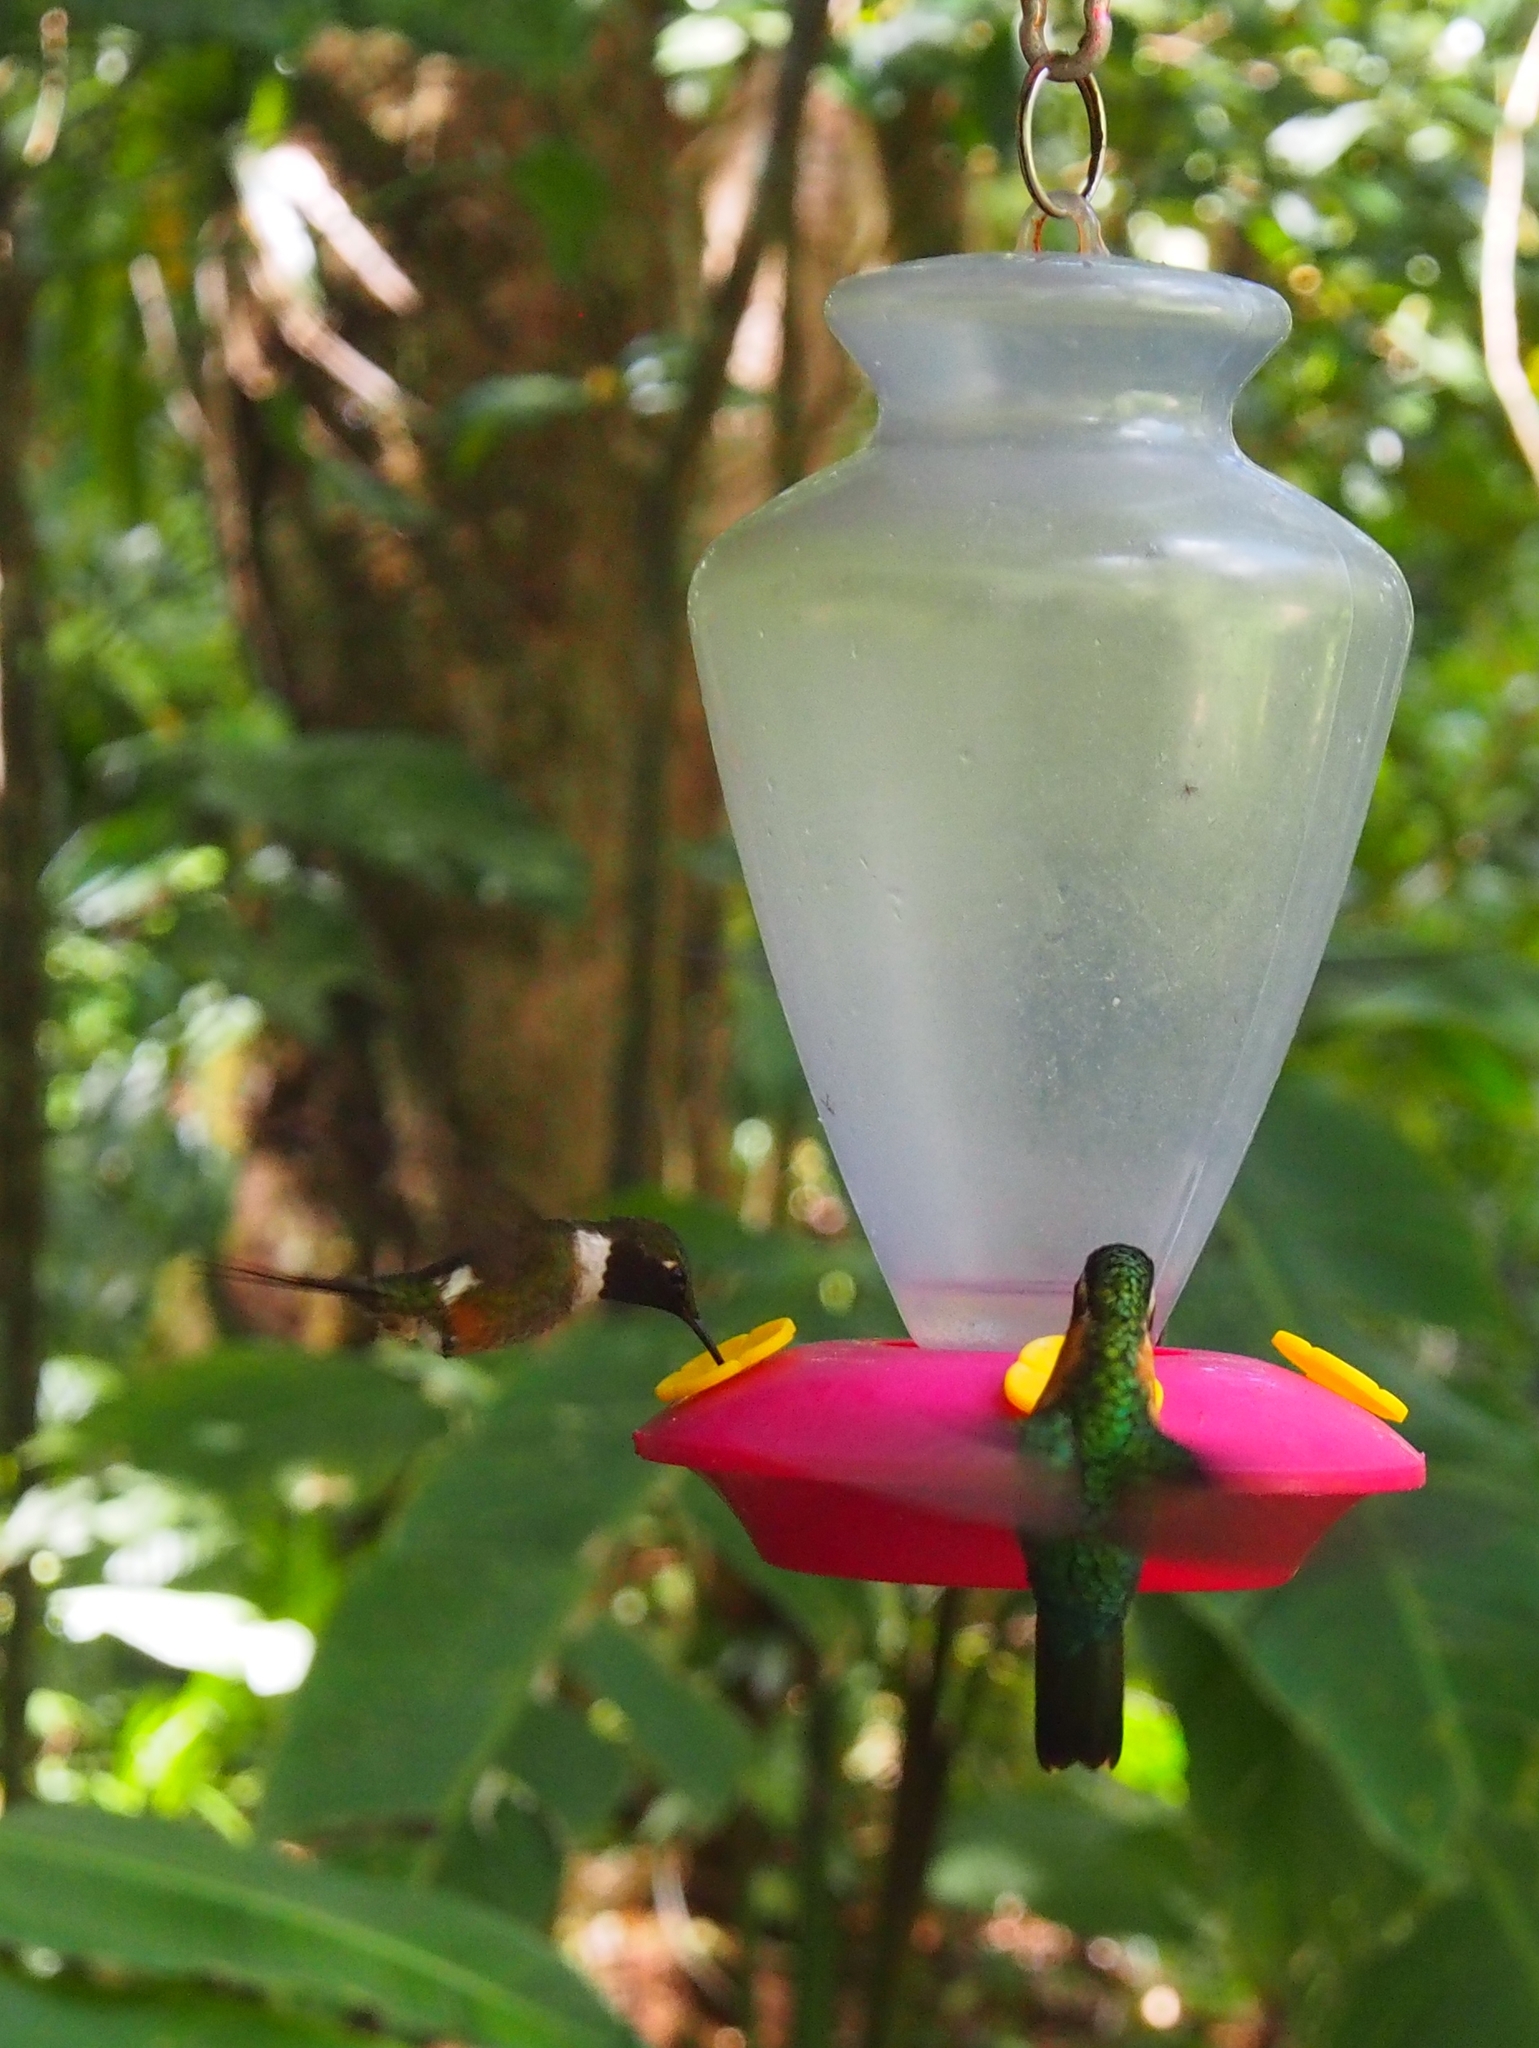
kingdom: Animalia
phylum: Chordata
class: Aves
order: Apodiformes
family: Trochilidae
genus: Calliphlox
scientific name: Calliphlox bryantae
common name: Magenta-throated woodstar
